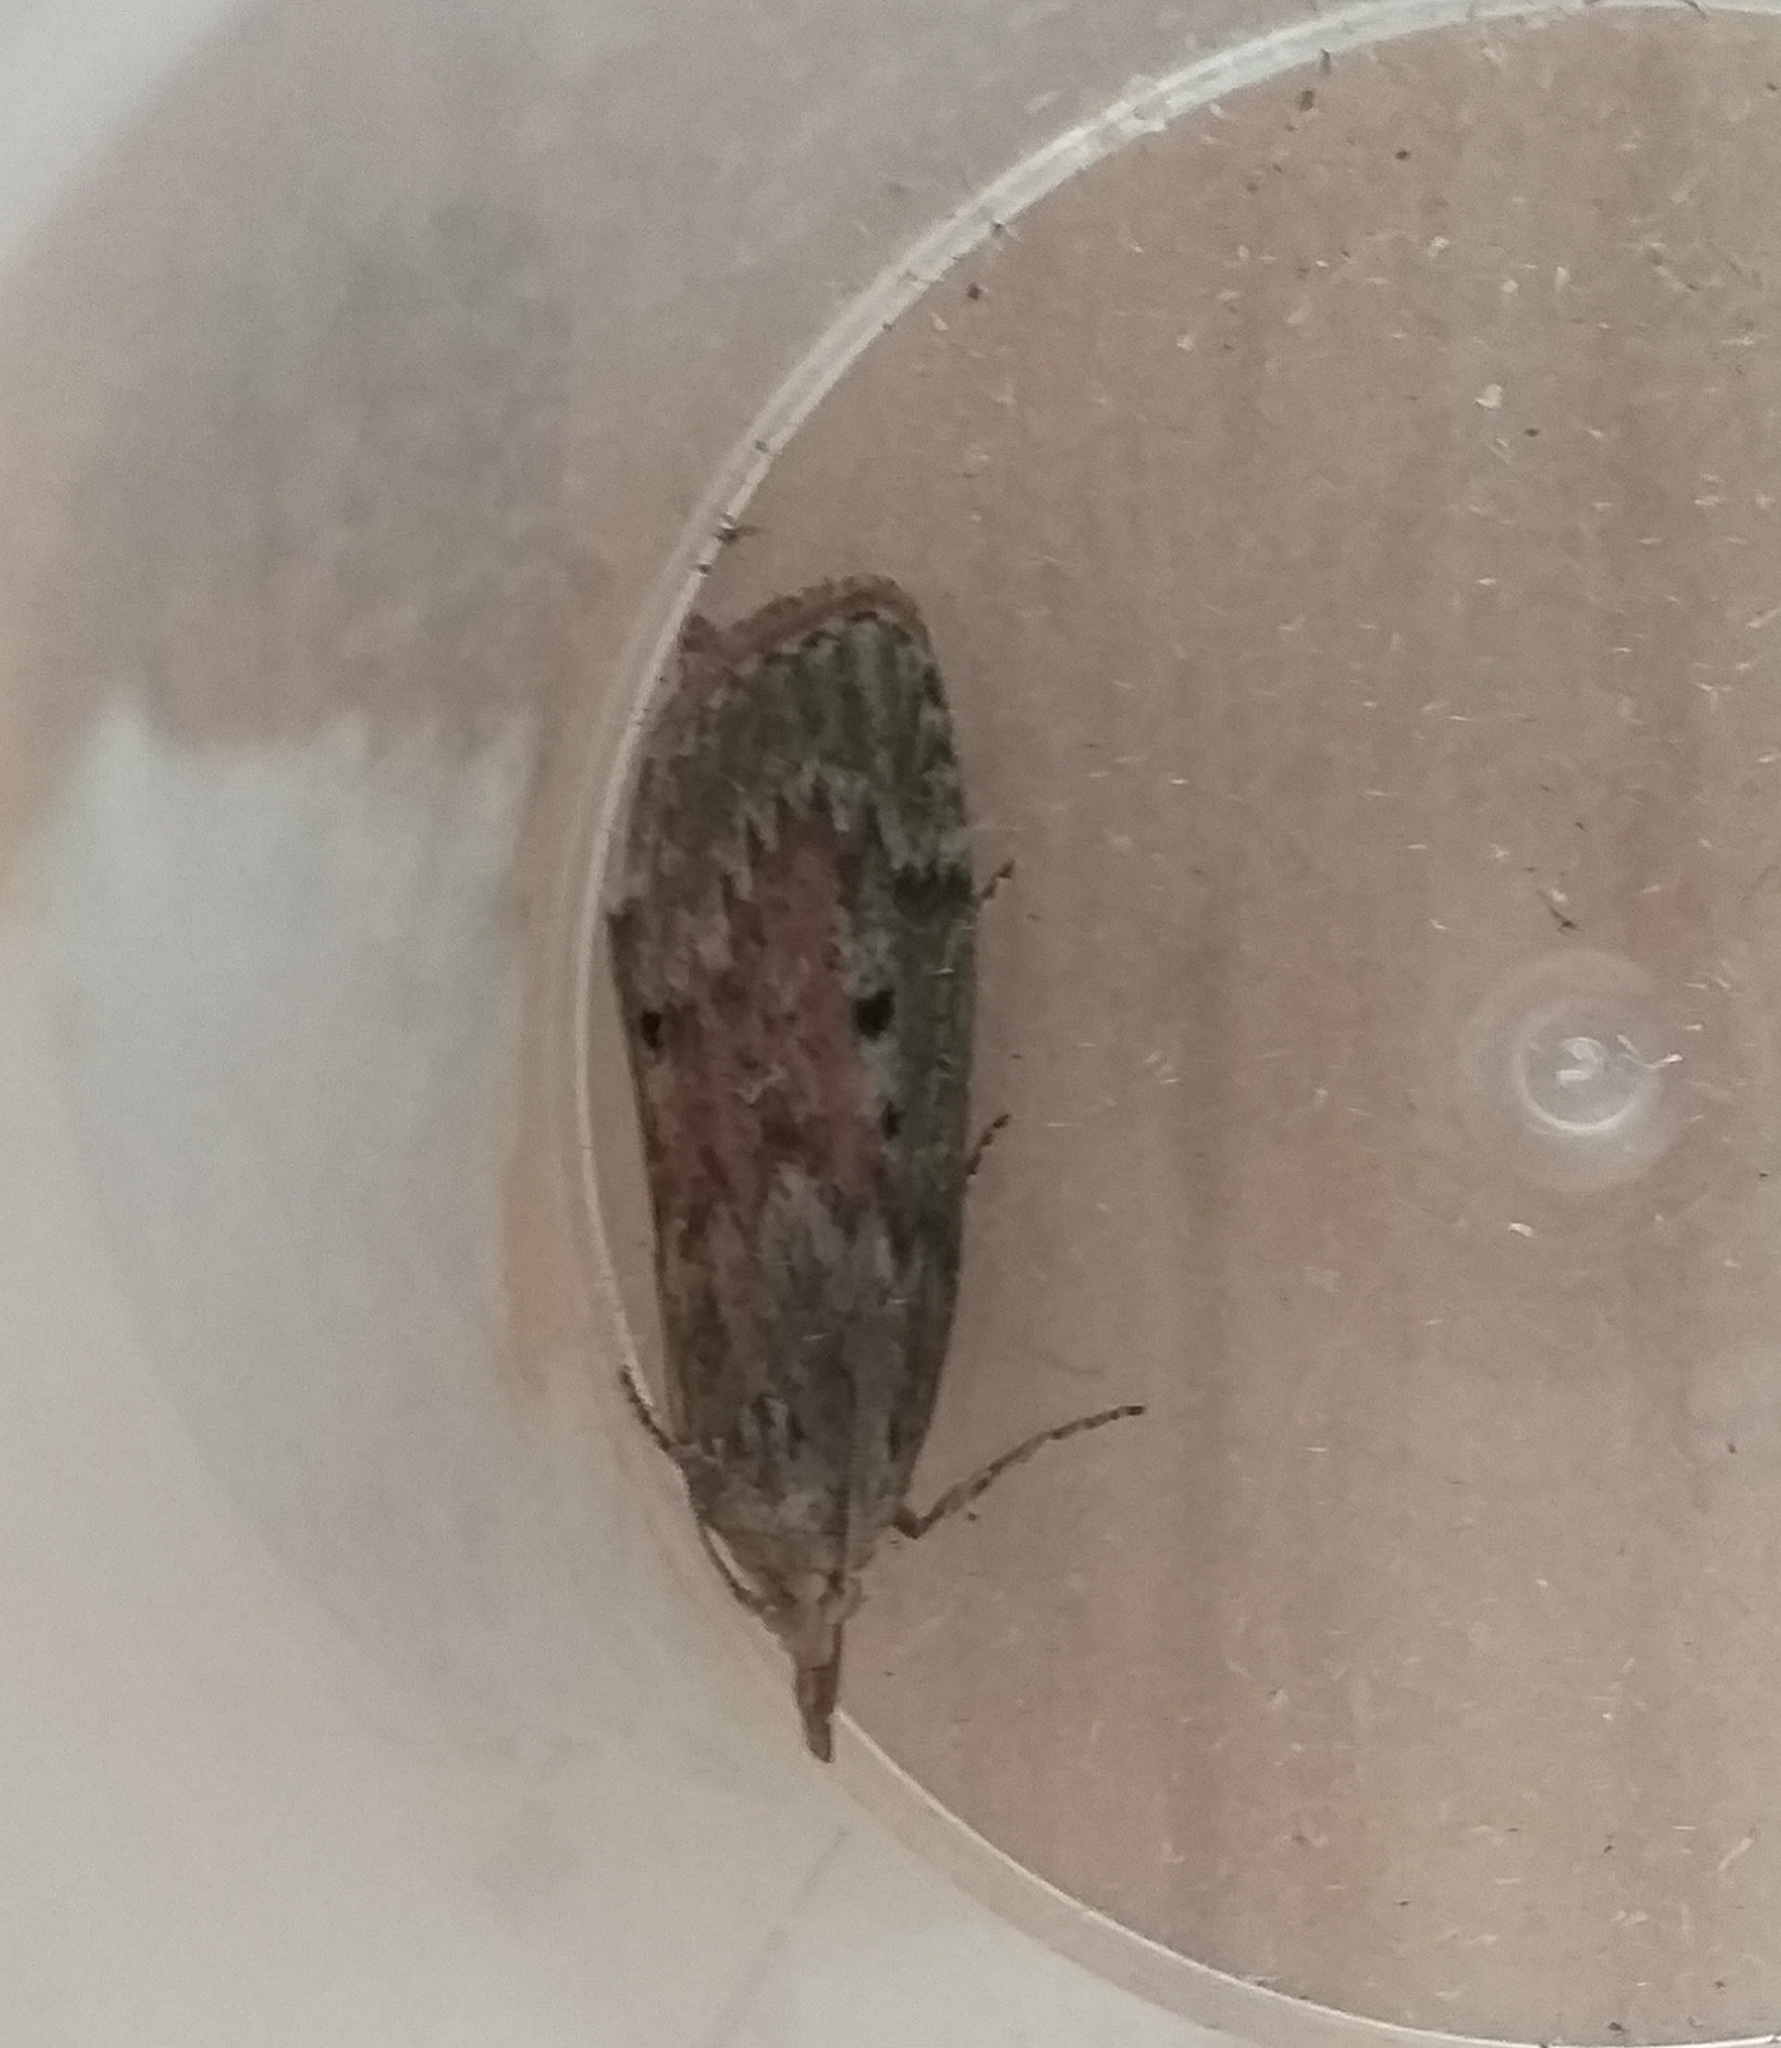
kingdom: Animalia
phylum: Arthropoda
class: Insecta
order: Lepidoptera
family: Pyralidae
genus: Aphomia
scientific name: Aphomia sociella
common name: Bee moth
